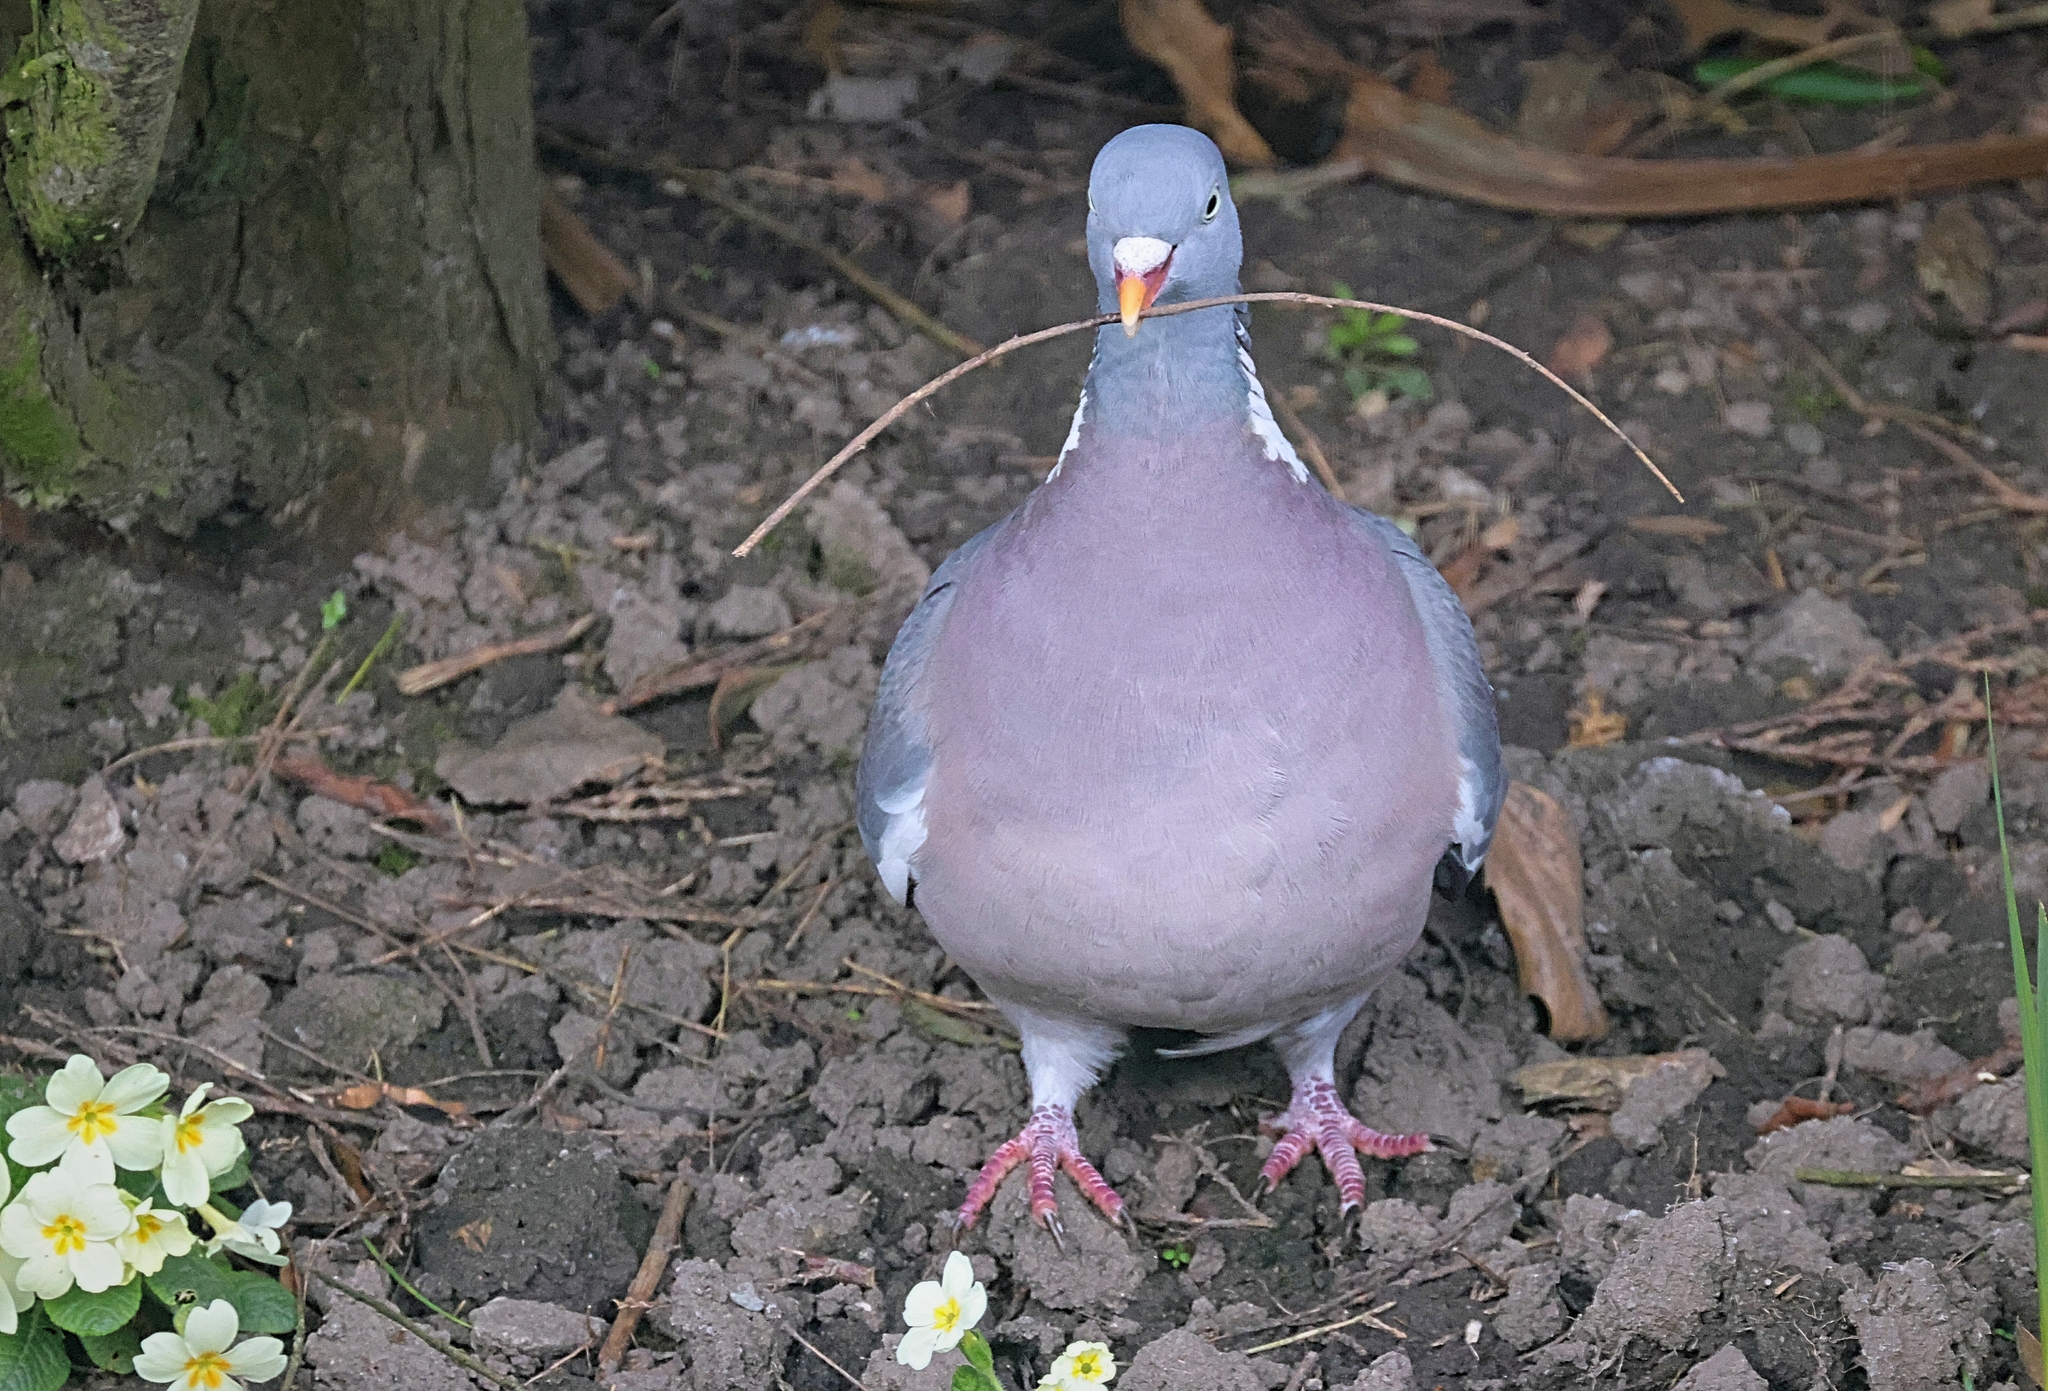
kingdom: Animalia
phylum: Chordata
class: Aves
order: Columbiformes
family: Columbidae
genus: Columba
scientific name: Columba palumbus
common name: Common wood pigeon
